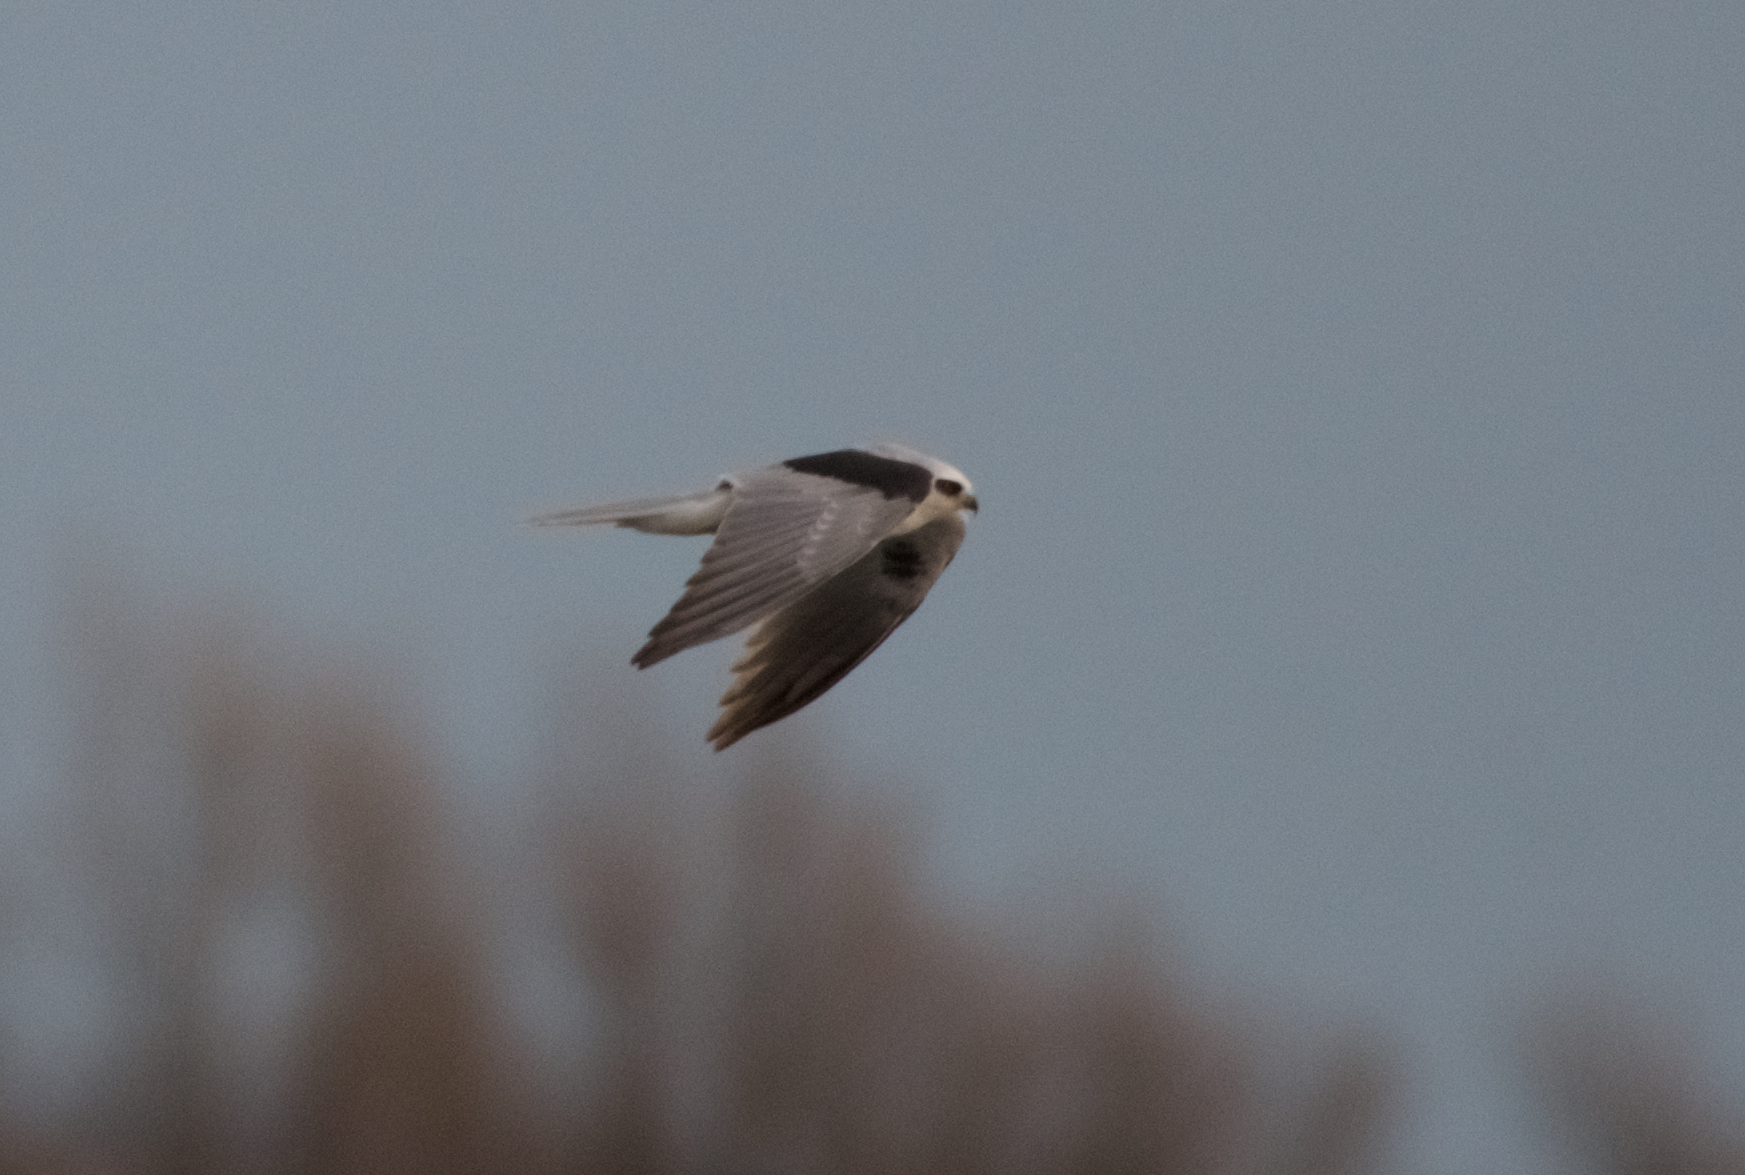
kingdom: Animalia
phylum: Chordata
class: Aves
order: Accipitriformes
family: Accipitridae
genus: Elanus
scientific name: Elanus leucurus
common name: White-tailed kite
